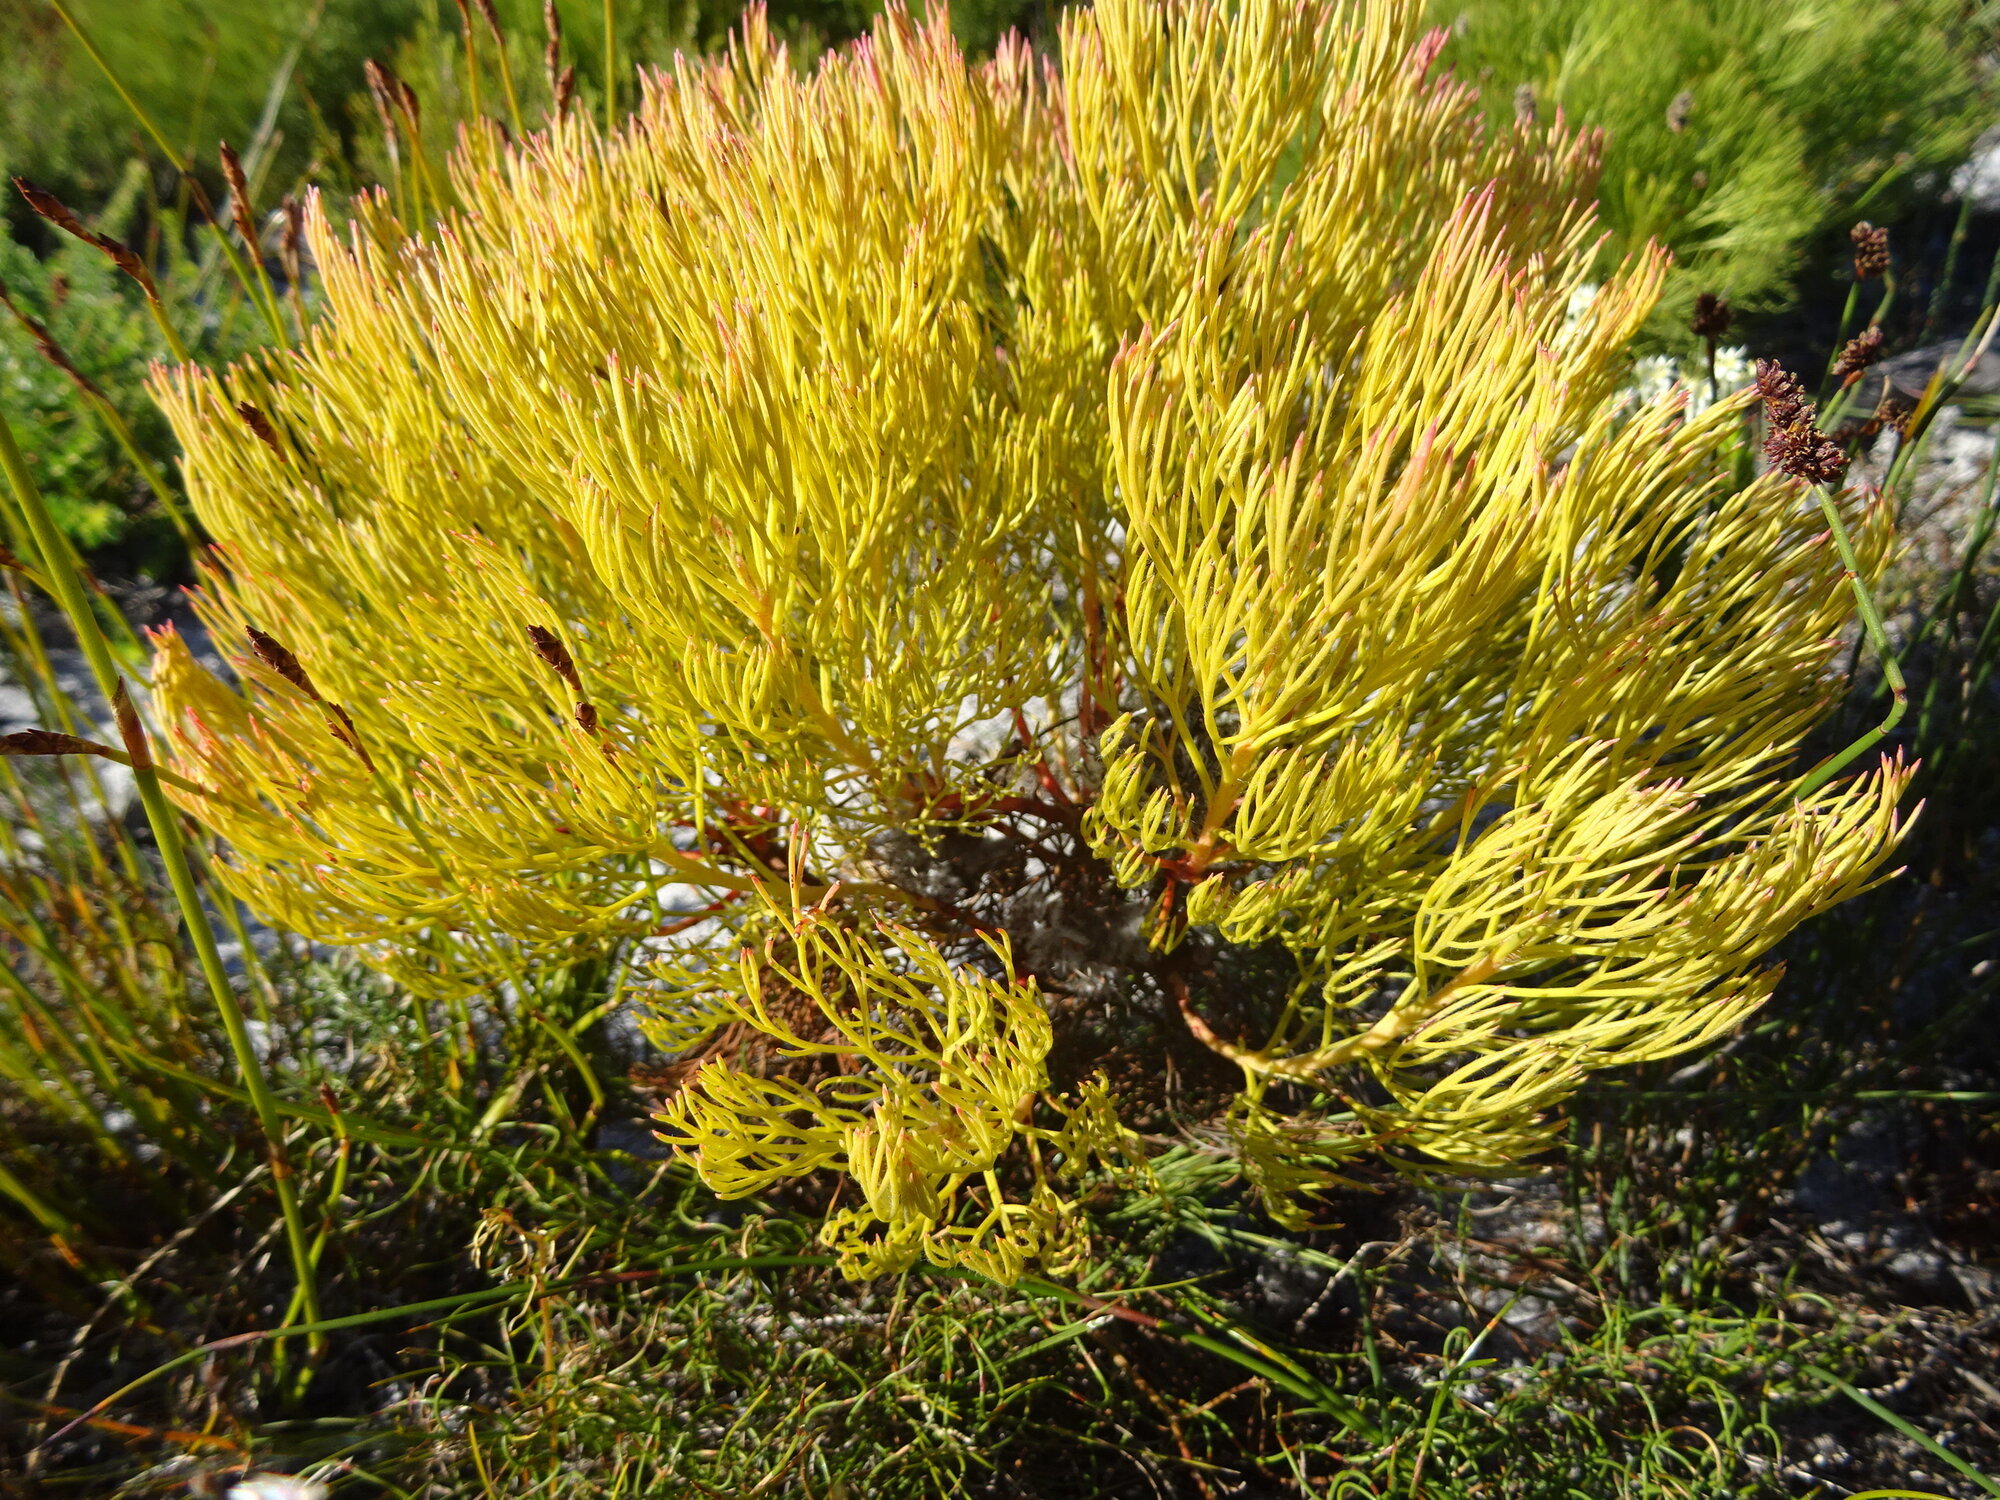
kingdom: Plantae
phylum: Tracheophyta
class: Magnoliopsida
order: Proteales
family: Proteaceae
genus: Serruria
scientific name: Serruria glomerata
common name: Cluster spiderhead
